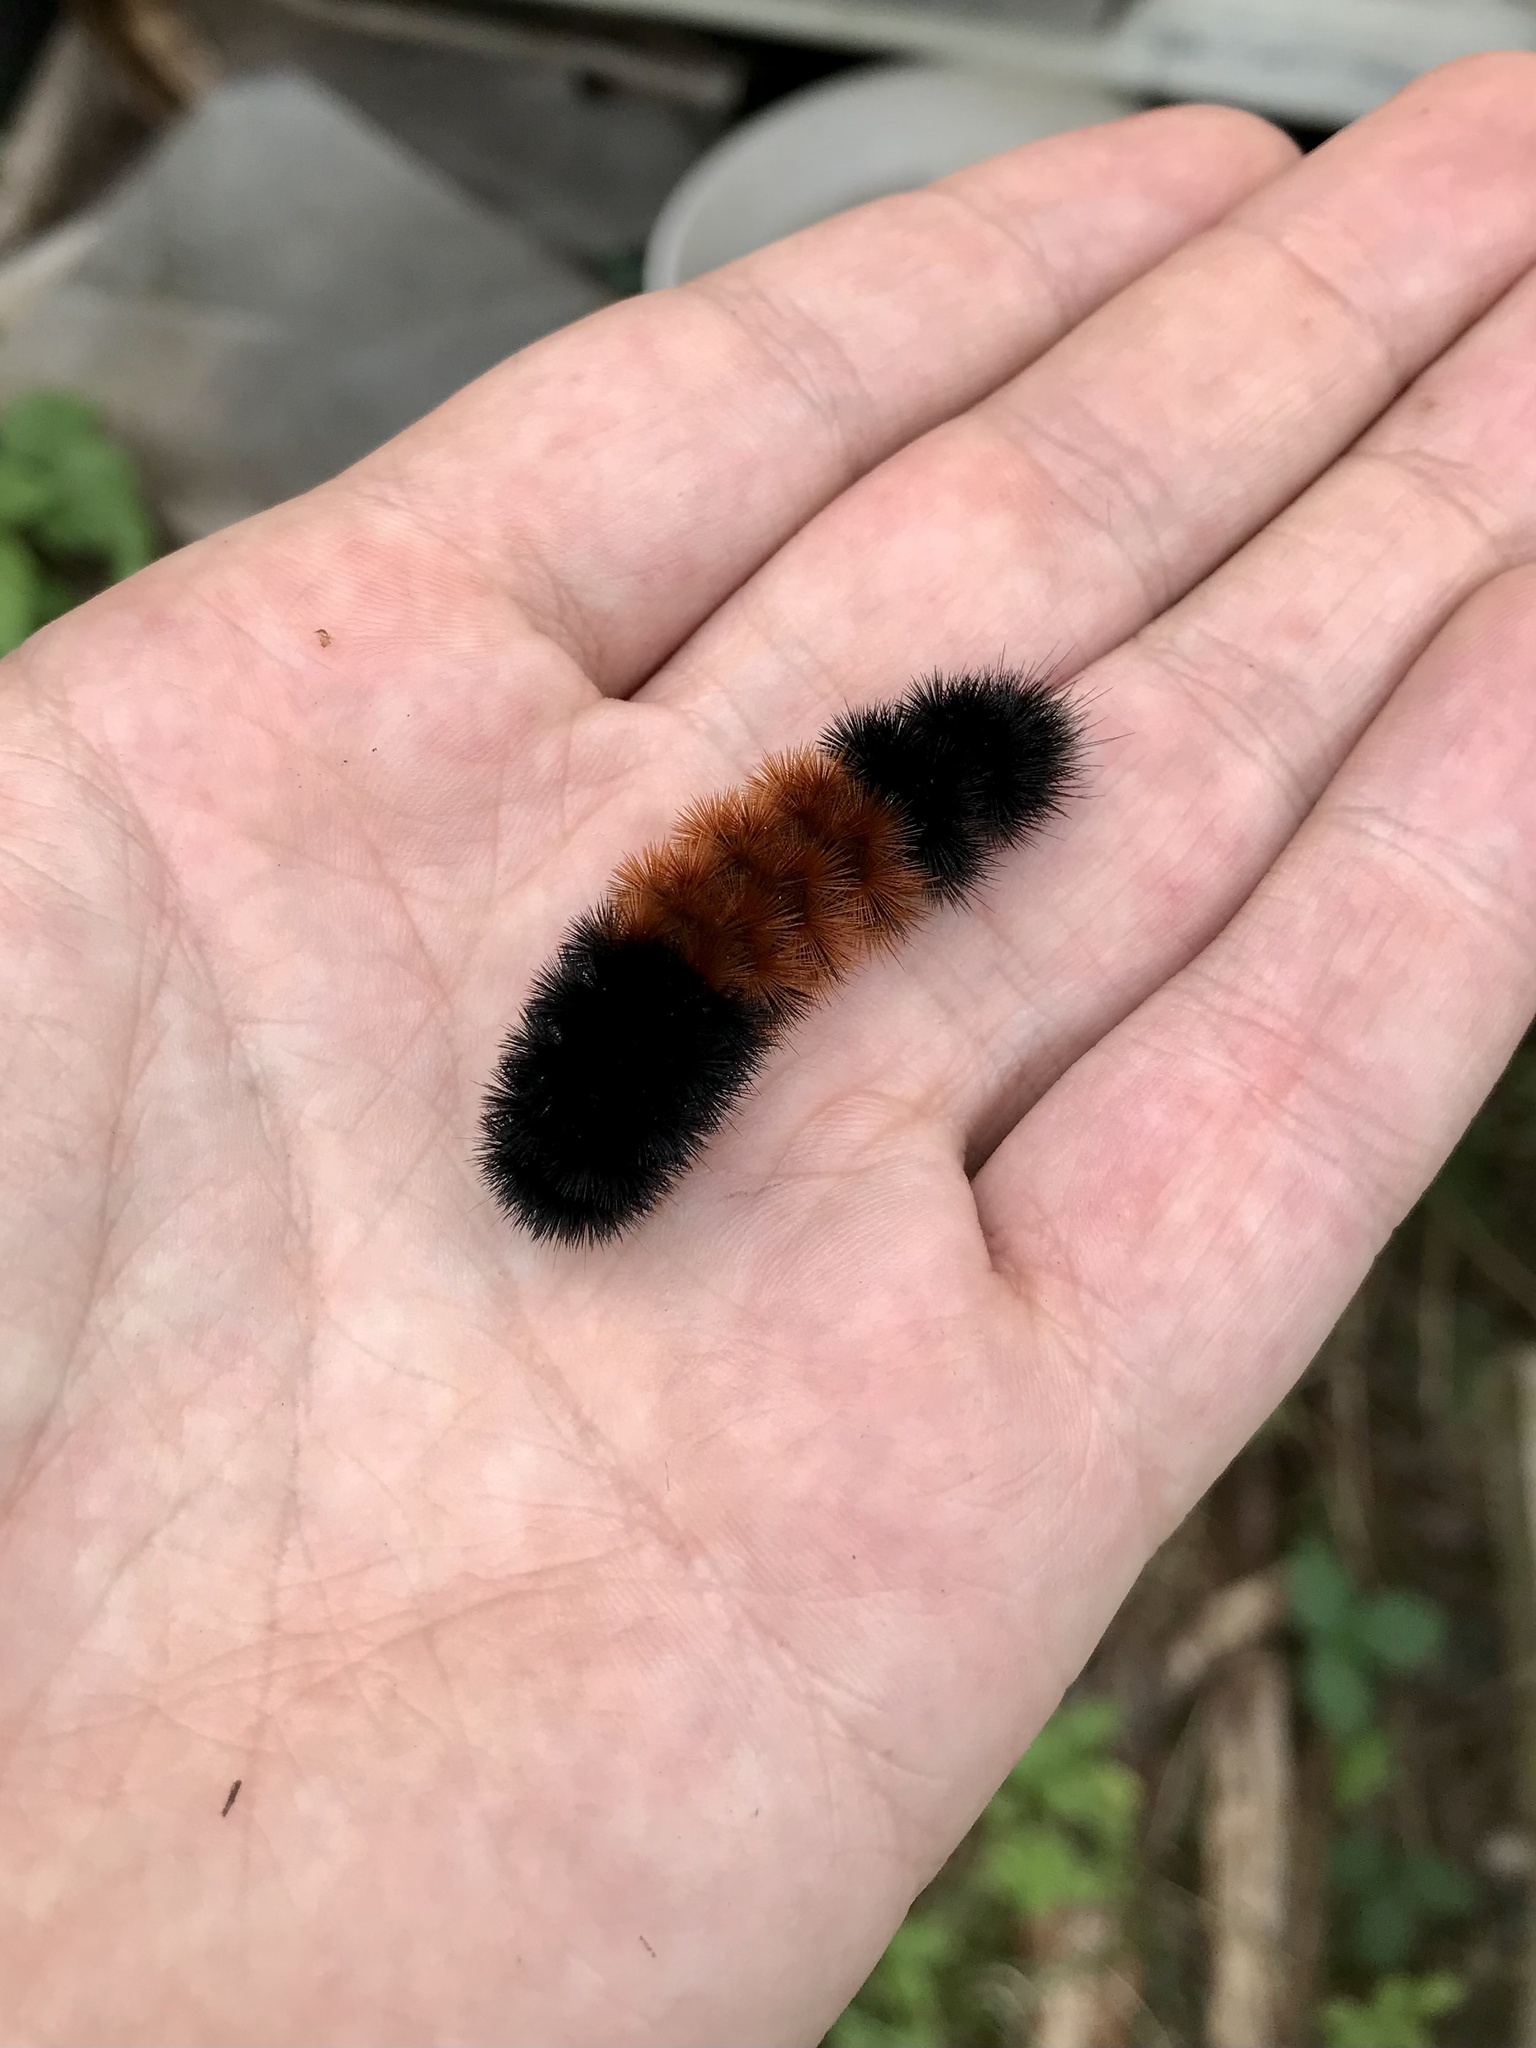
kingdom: Animalia
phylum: Arthropoda
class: Insecta
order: Lepidoptera
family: Erebidae
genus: Pyrrharctia
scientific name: Pyrrharctia isabella
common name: Isabella tiger moth
